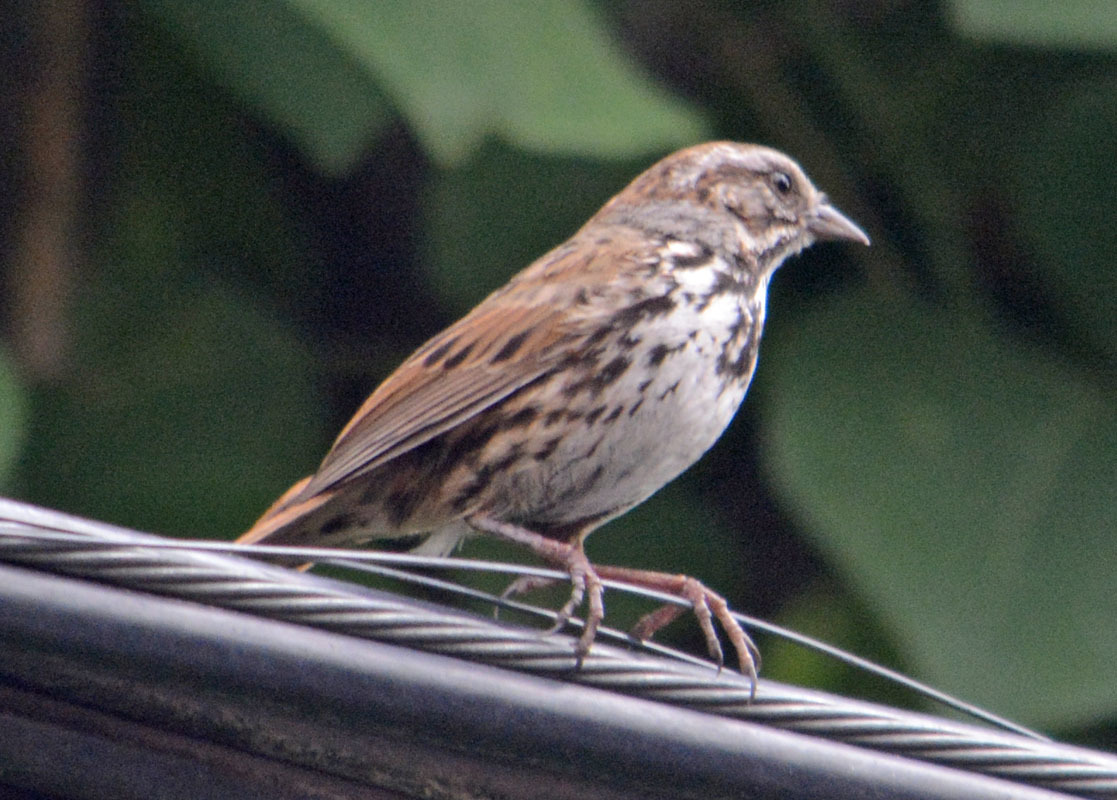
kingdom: Animalia
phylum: Chordata
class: Aves
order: Passeriformes
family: Passerellidae
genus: Melospiza
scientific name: Melospiza melodia
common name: Song sparrow
